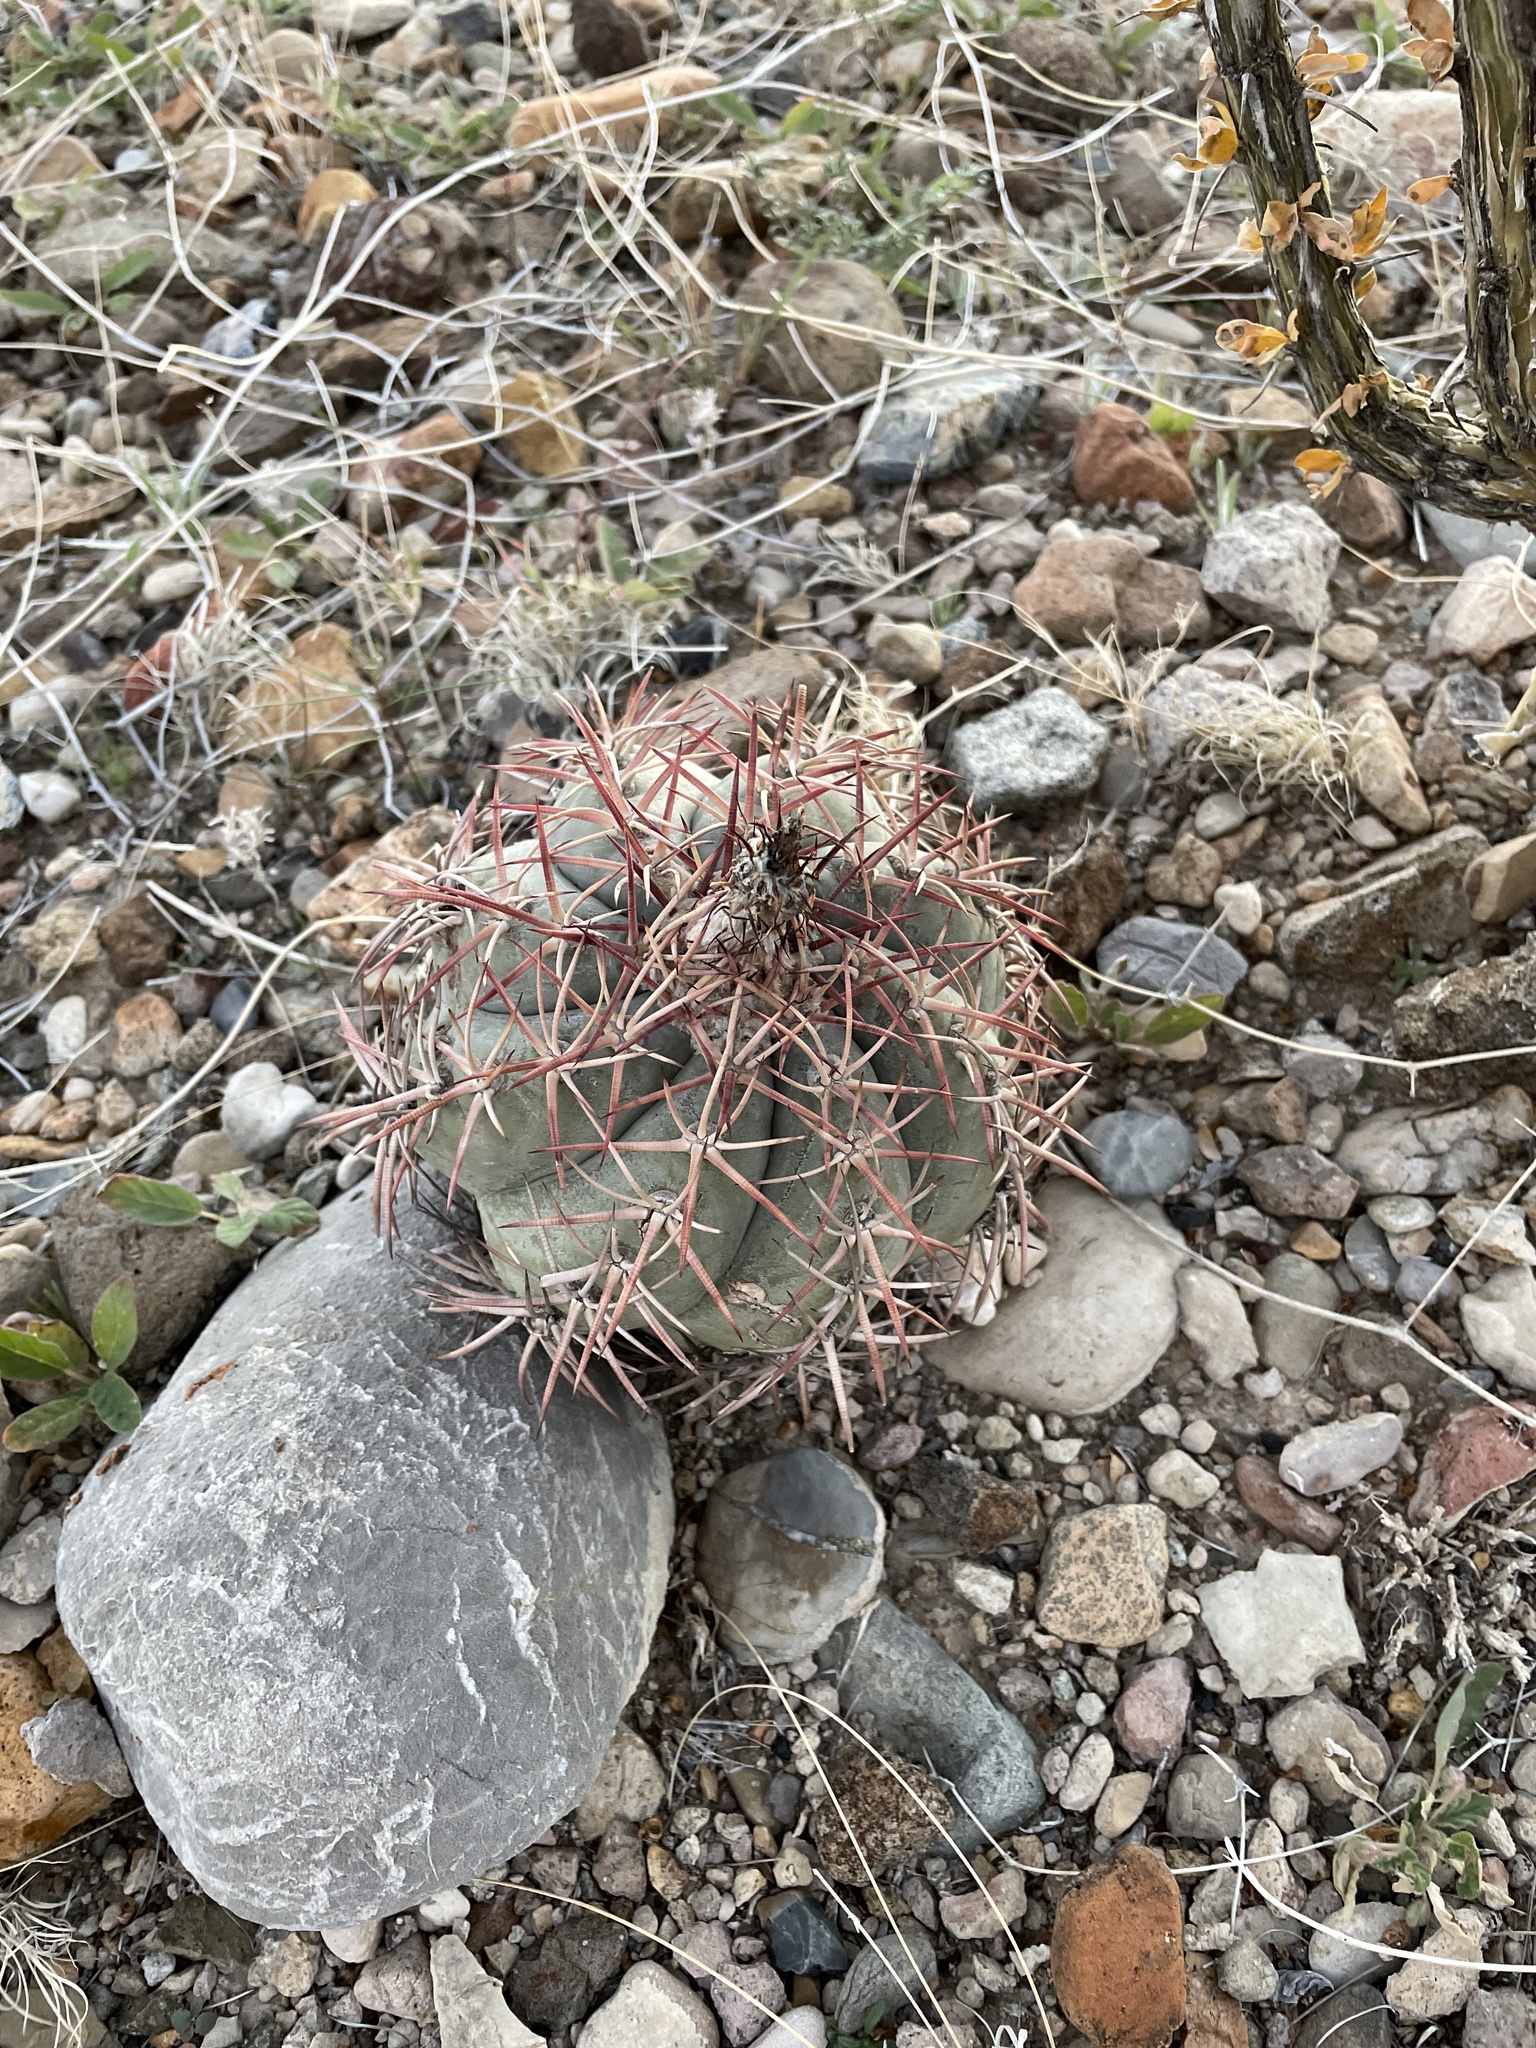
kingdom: Plantae
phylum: Tracheophyta
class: Magnoliopsida
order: Caryophyllales
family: Cactaceae
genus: Echinocactus
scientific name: Echinocactus horizonthalonius
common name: Devilshead
